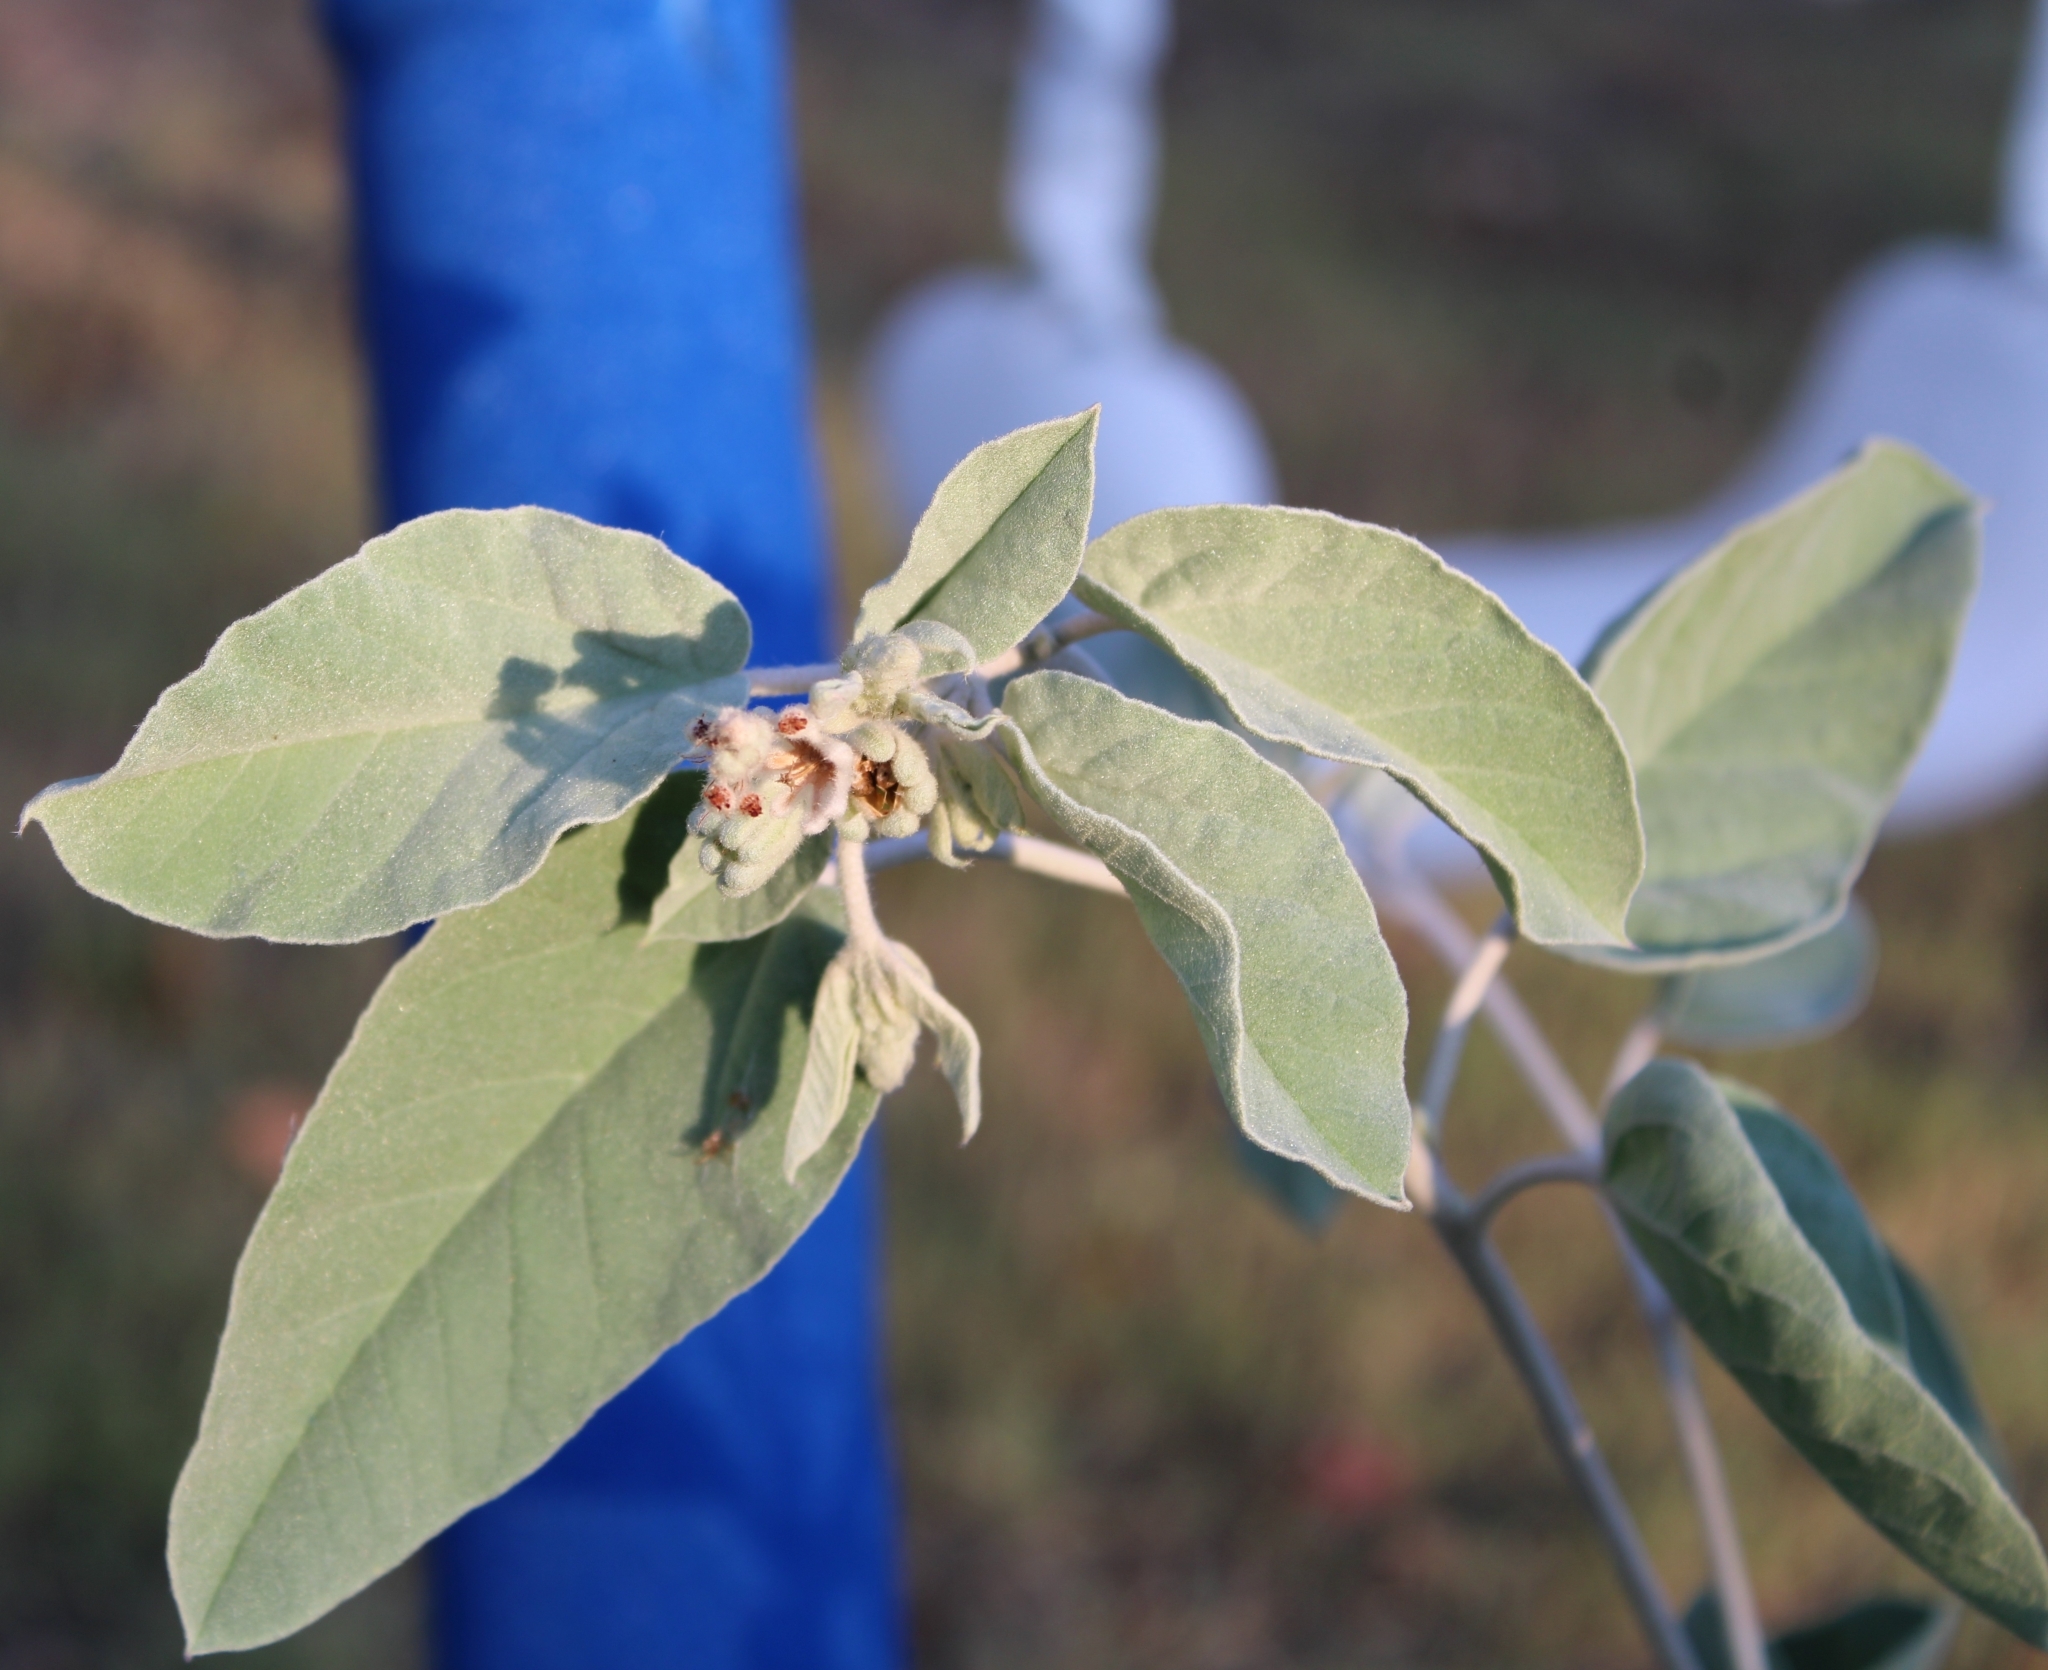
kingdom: Plantae
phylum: Tracheophyta
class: Magnoliopsida
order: Malpighiales
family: Euphorbiaceae
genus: Croton
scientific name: Croton heptalon
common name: Woolly croton
